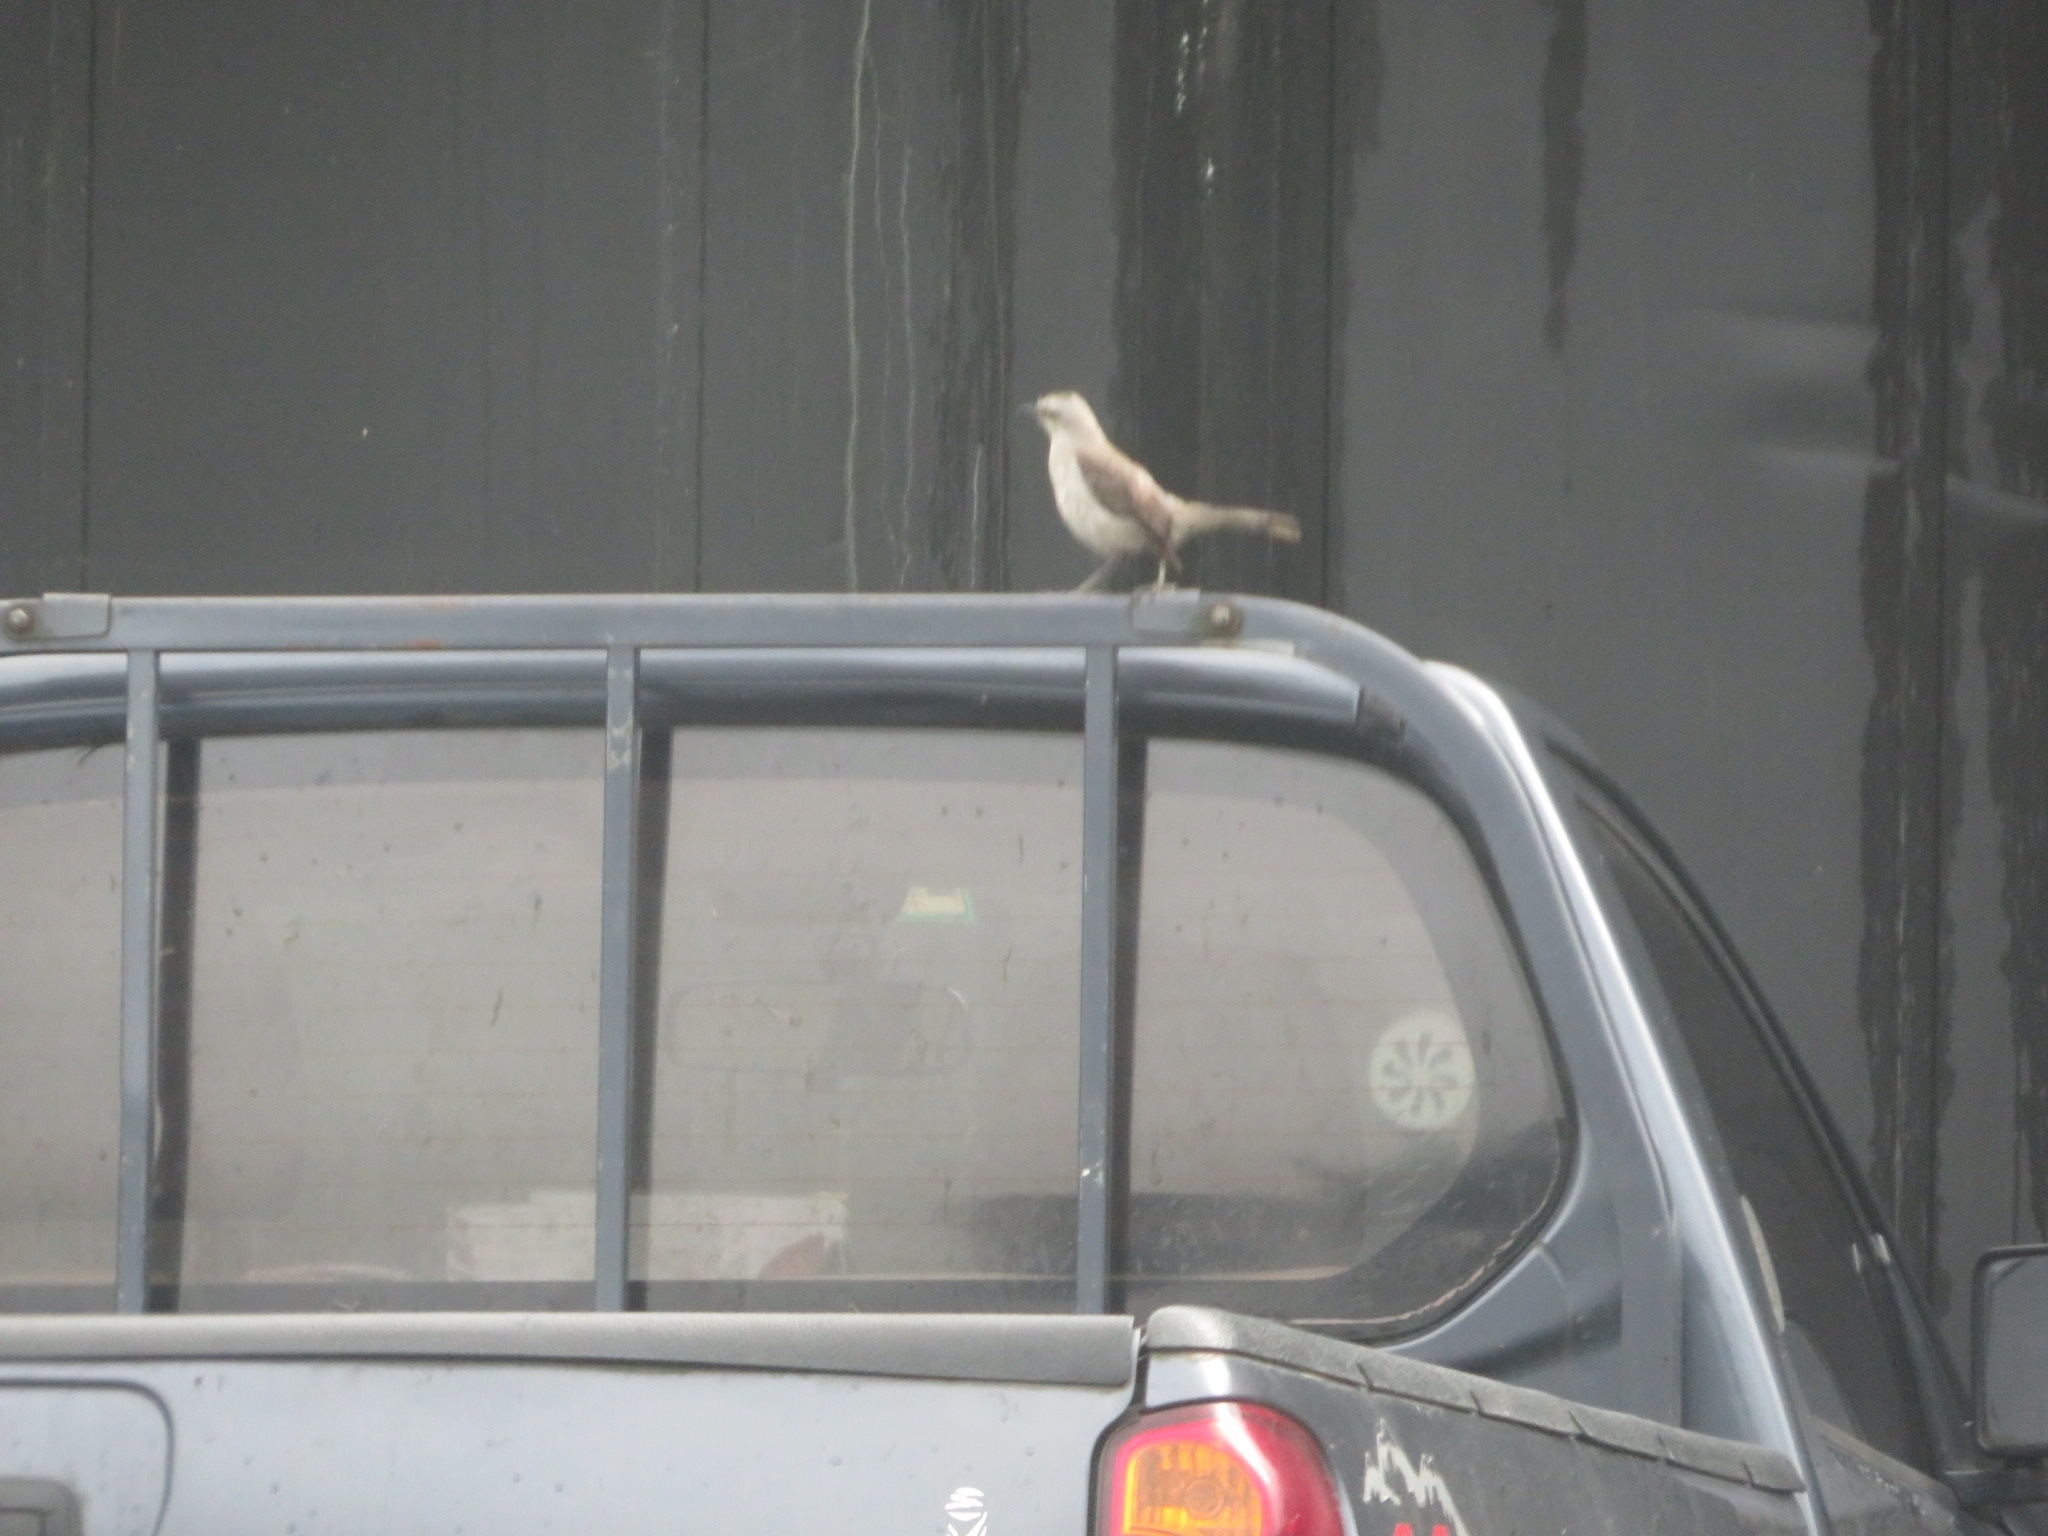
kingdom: Animalia
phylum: Chordata
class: Aves
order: Passeriformes
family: Mimidae
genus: Mimus
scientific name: Mimus gilvus
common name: Tropical mockingbird
